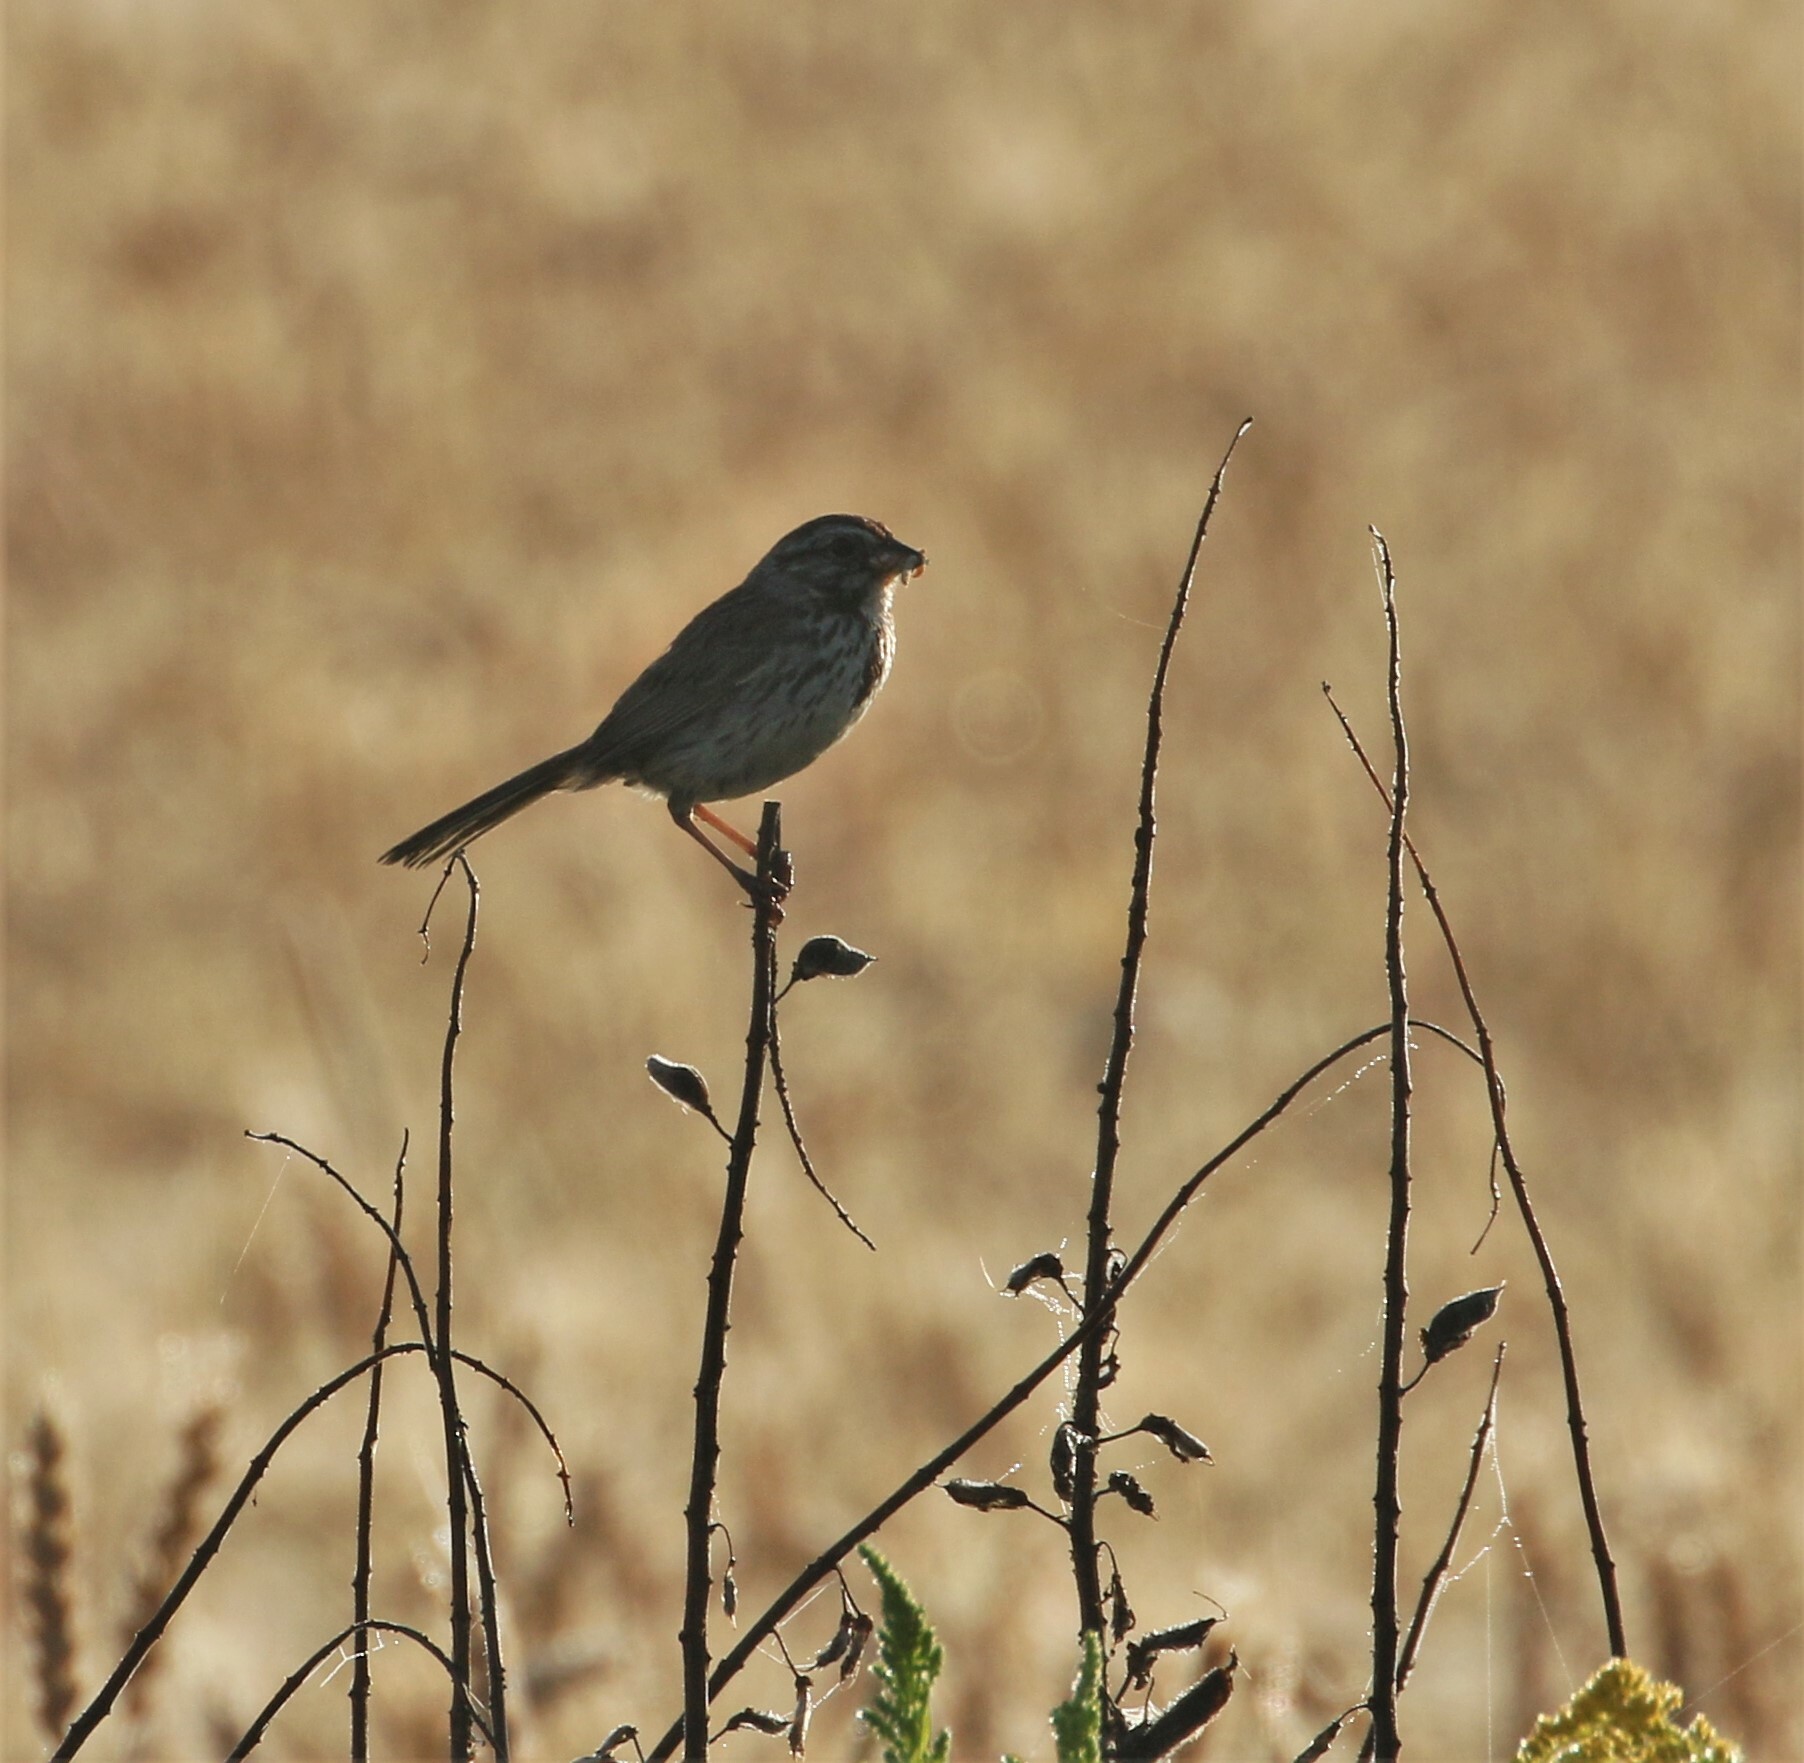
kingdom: Animalia
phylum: Chordata
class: Aves
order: Passeriformes
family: Passerellidae
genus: Melospiza
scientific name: Melospiza melodia
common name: Song sparrow
